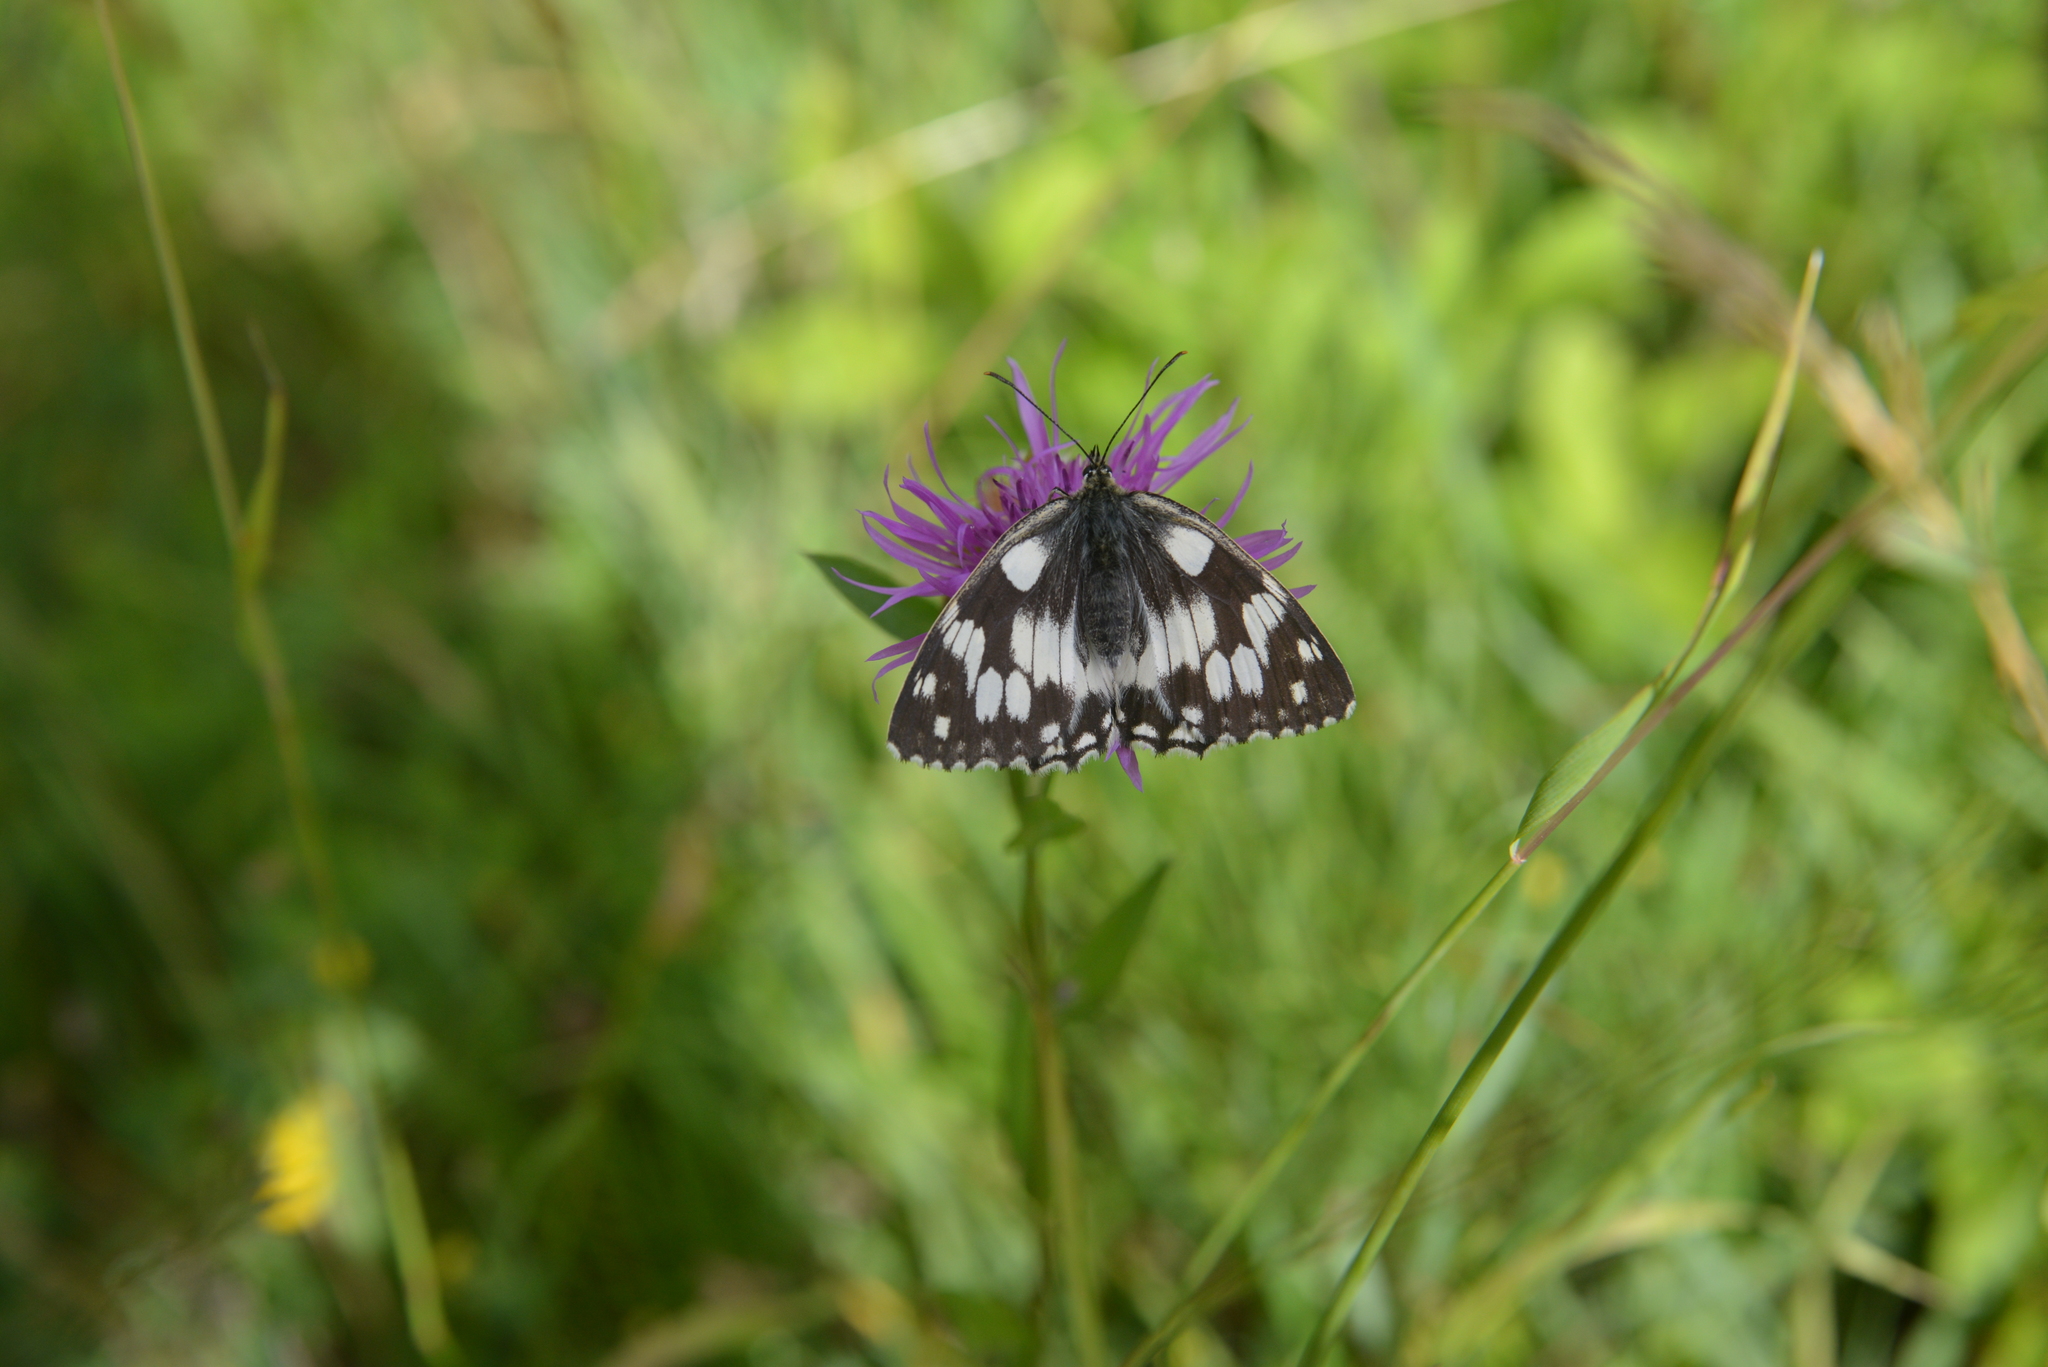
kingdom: Animalia
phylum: Arthropoda
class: Insecta
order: Lepidoptera
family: Nymphalidae
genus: Melanargia
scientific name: Melanargia galathea
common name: Marbled white
